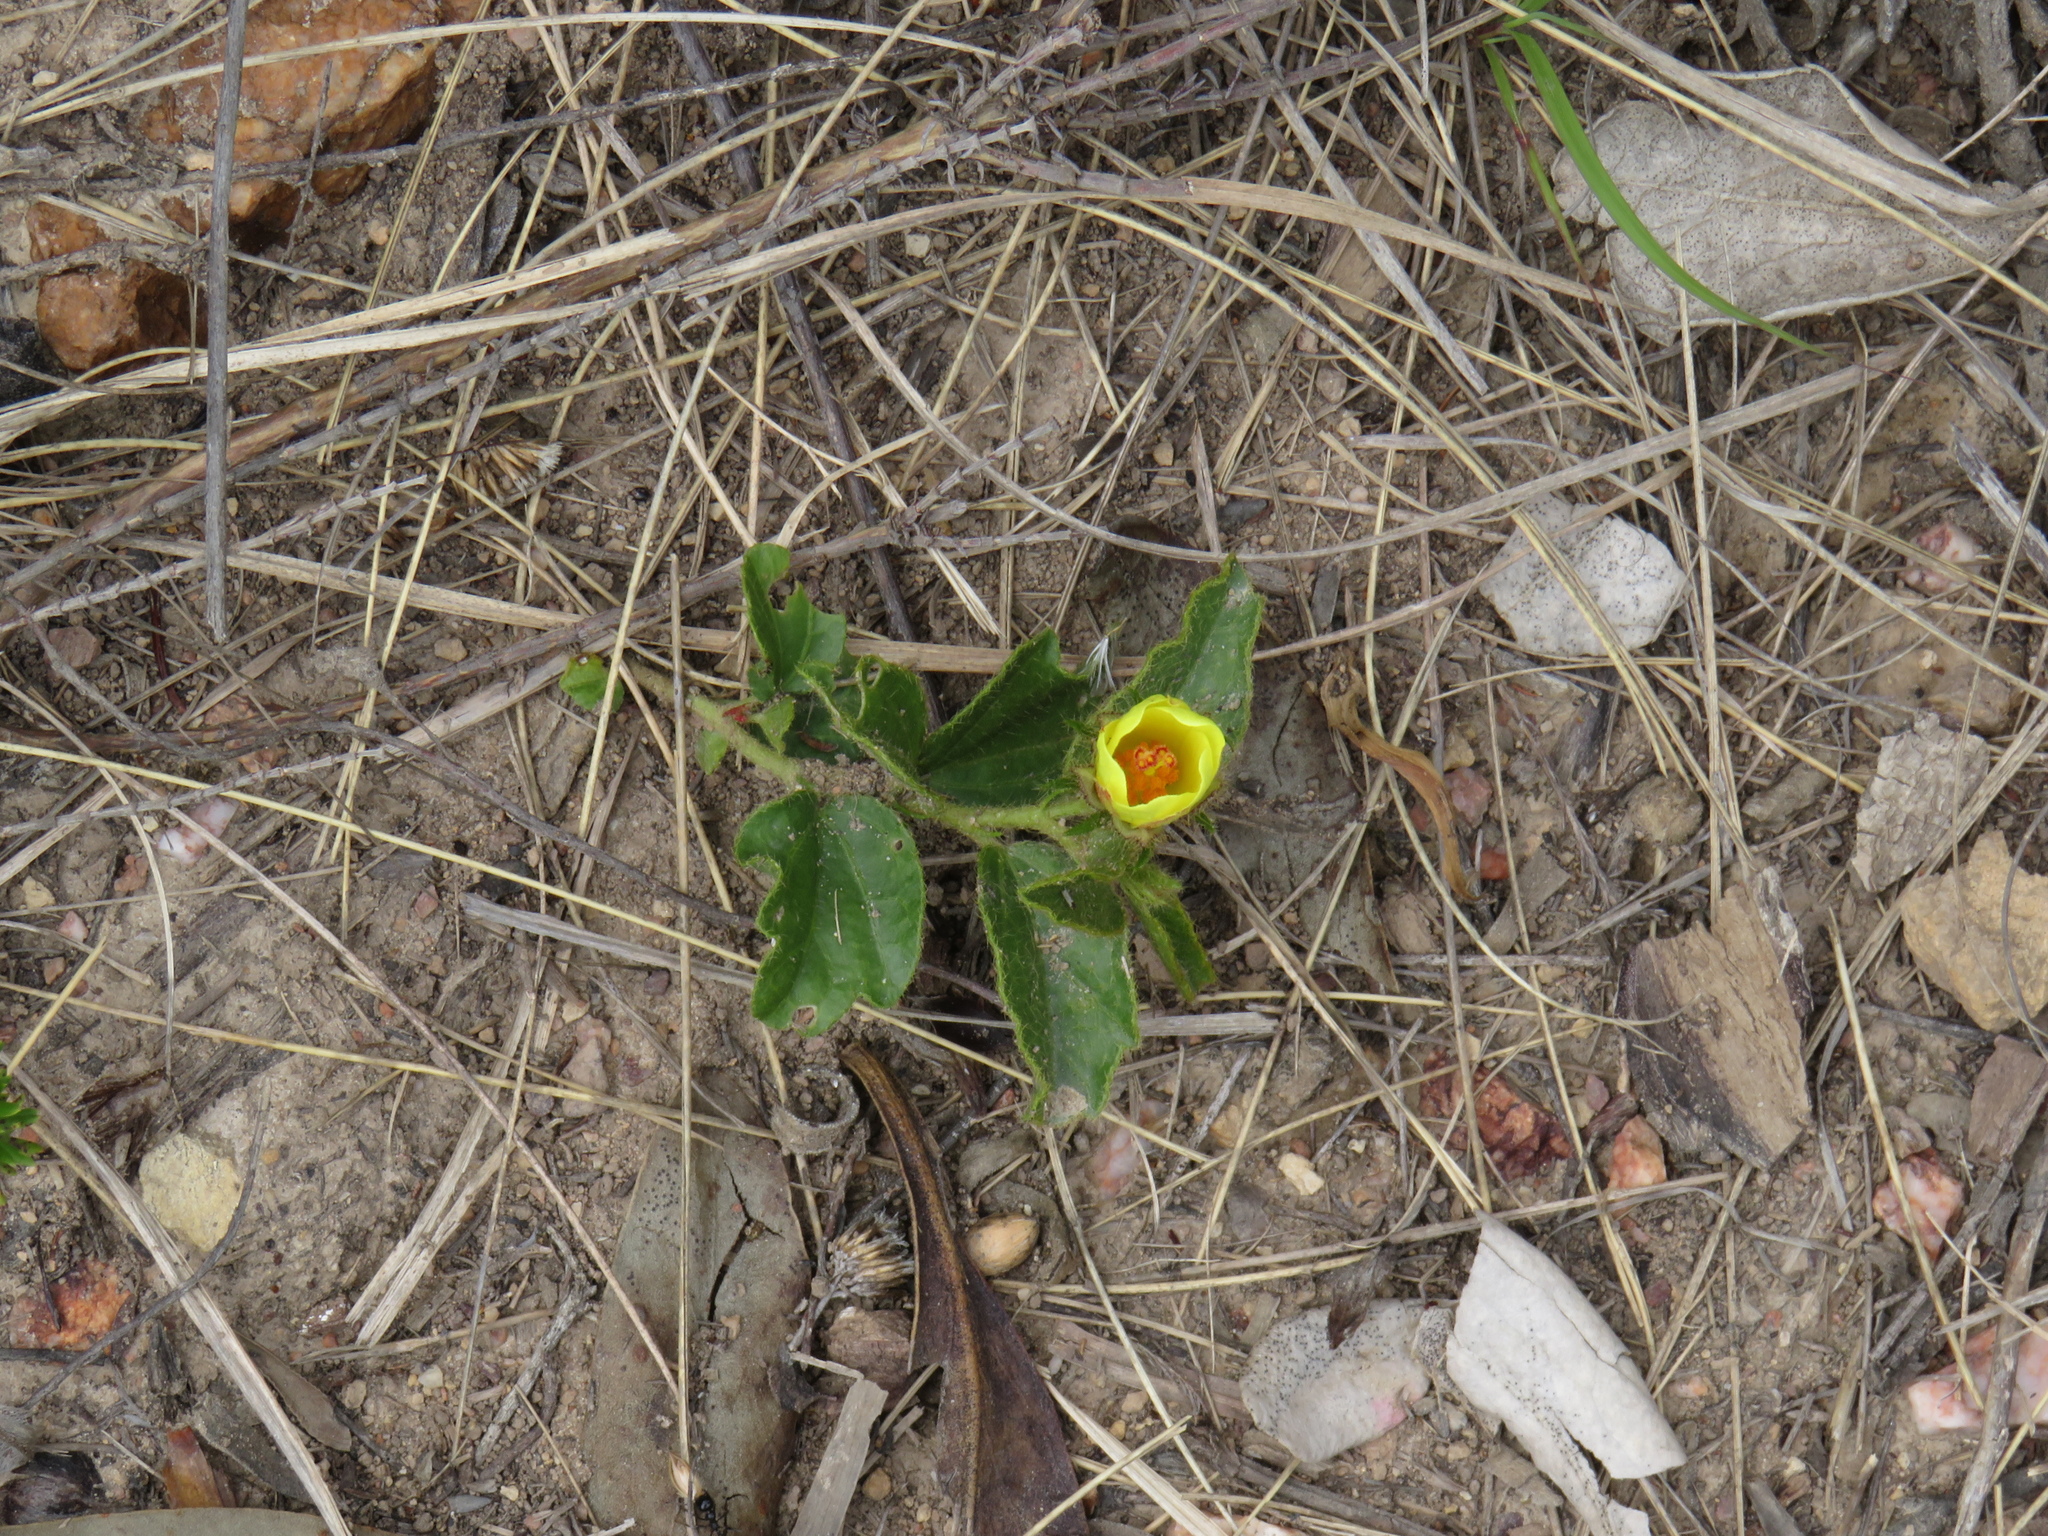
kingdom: Plantae
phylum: Tracheophyta
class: Magnoliopsida
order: Malvales
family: Malvaceae
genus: Hibiscus
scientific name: Hibiscus aethiopicus
